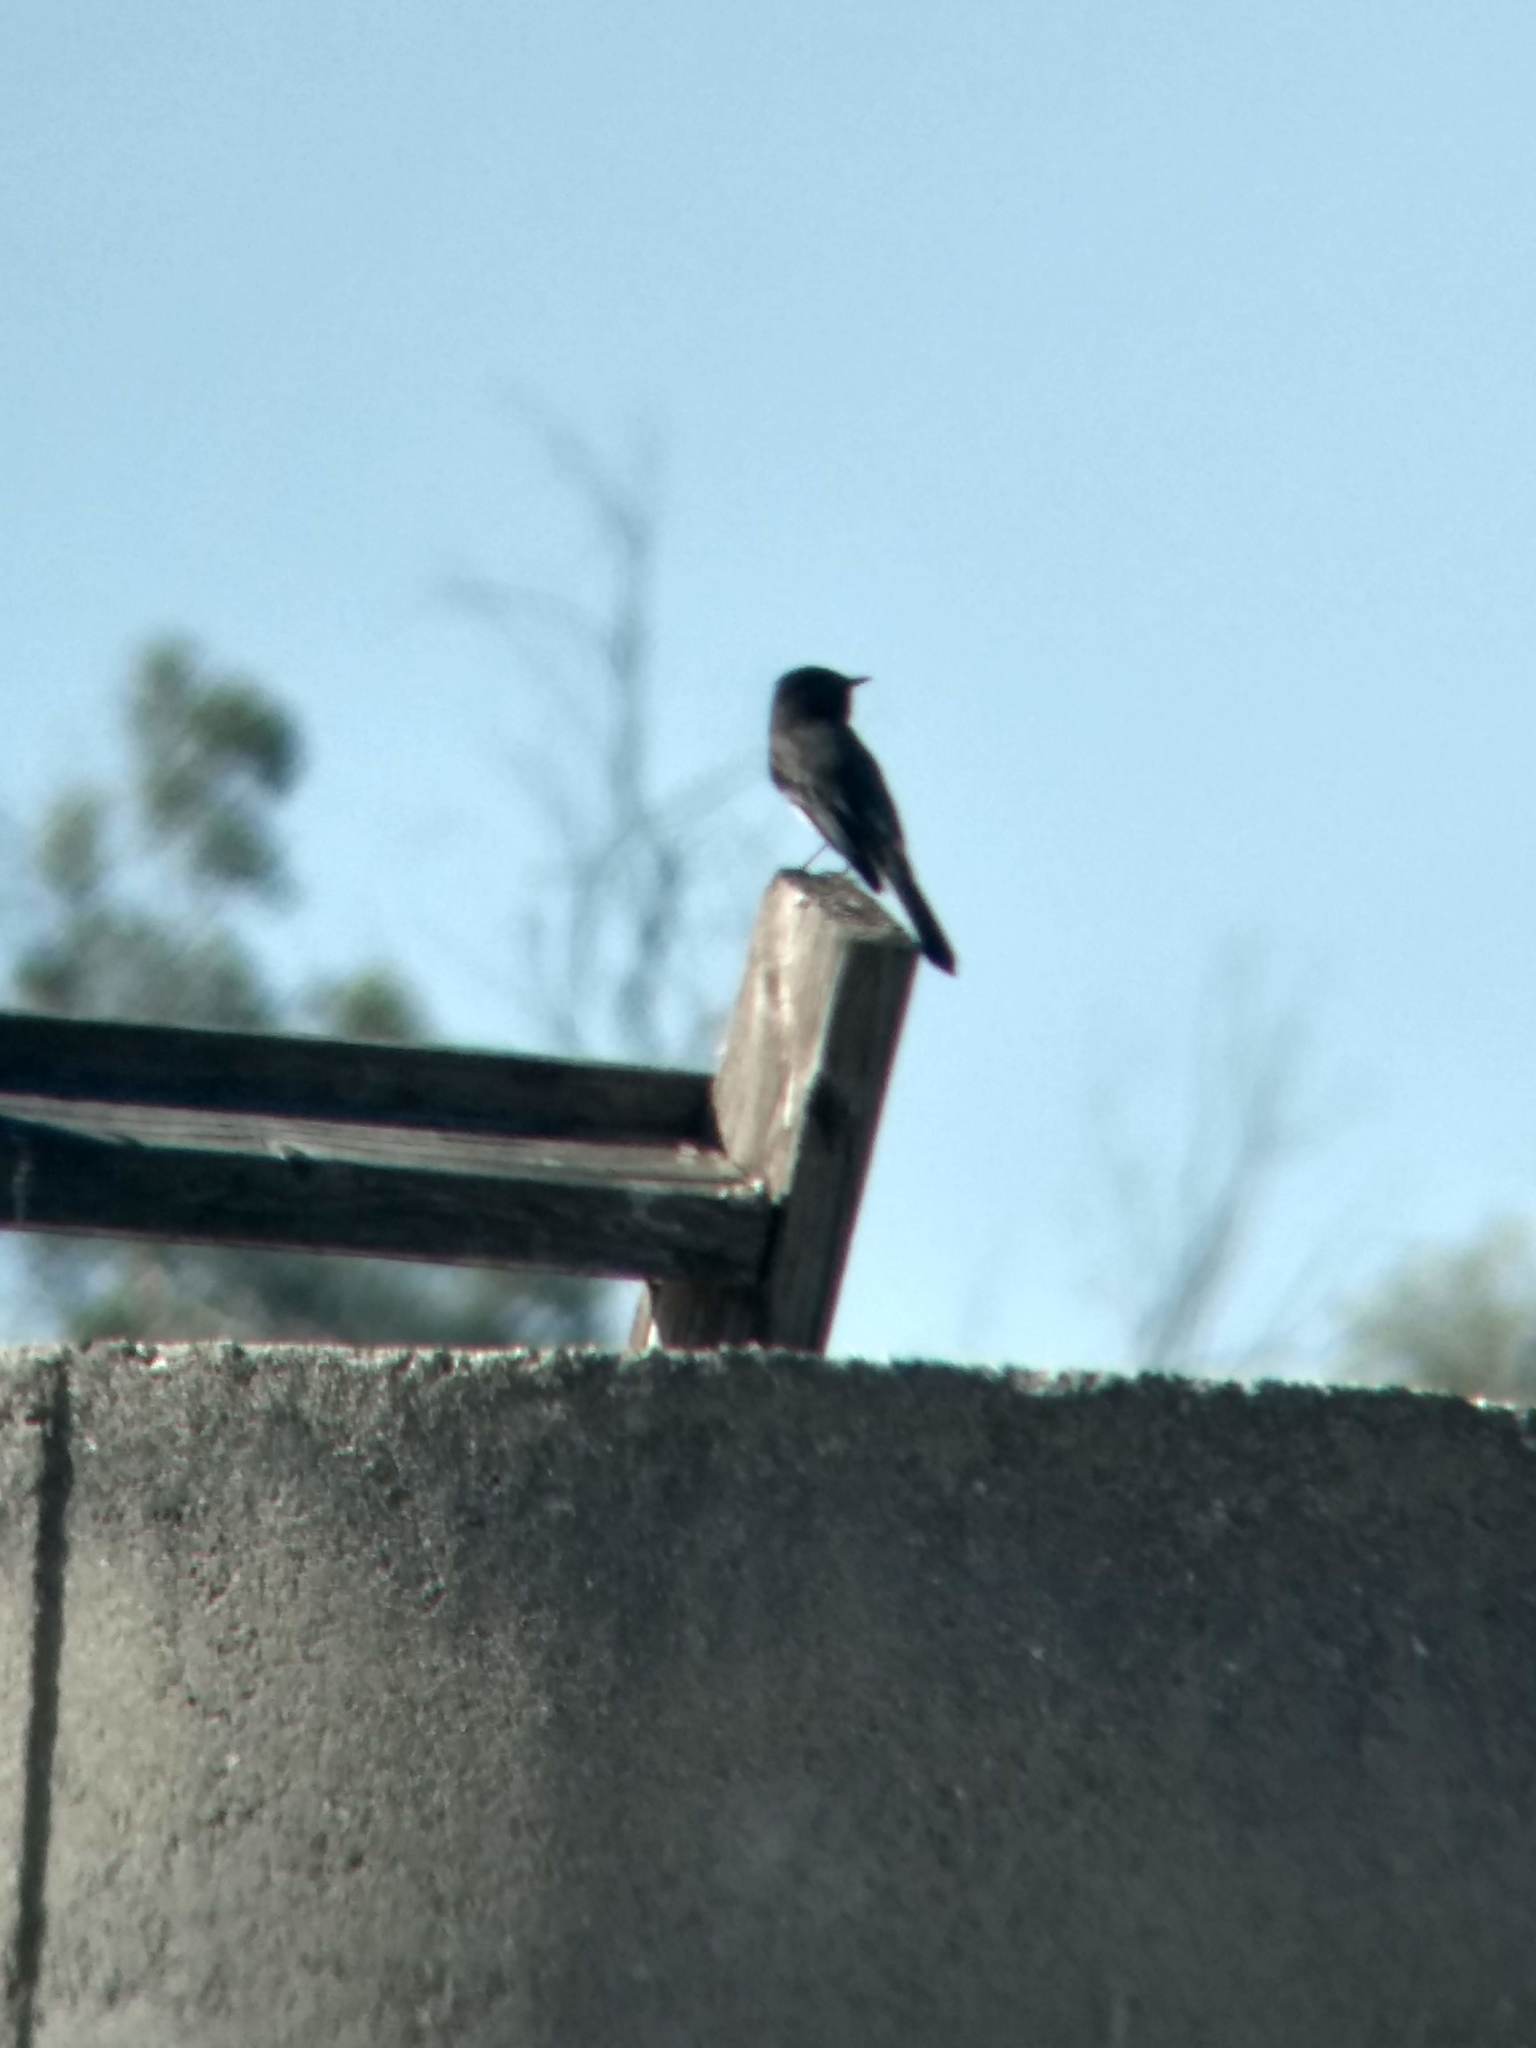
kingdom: Animalia
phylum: Chordata
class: Aves
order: Passeriformes
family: Tyrannidae
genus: Sayornis
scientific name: Sayornis nigricans
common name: Black phoebe
